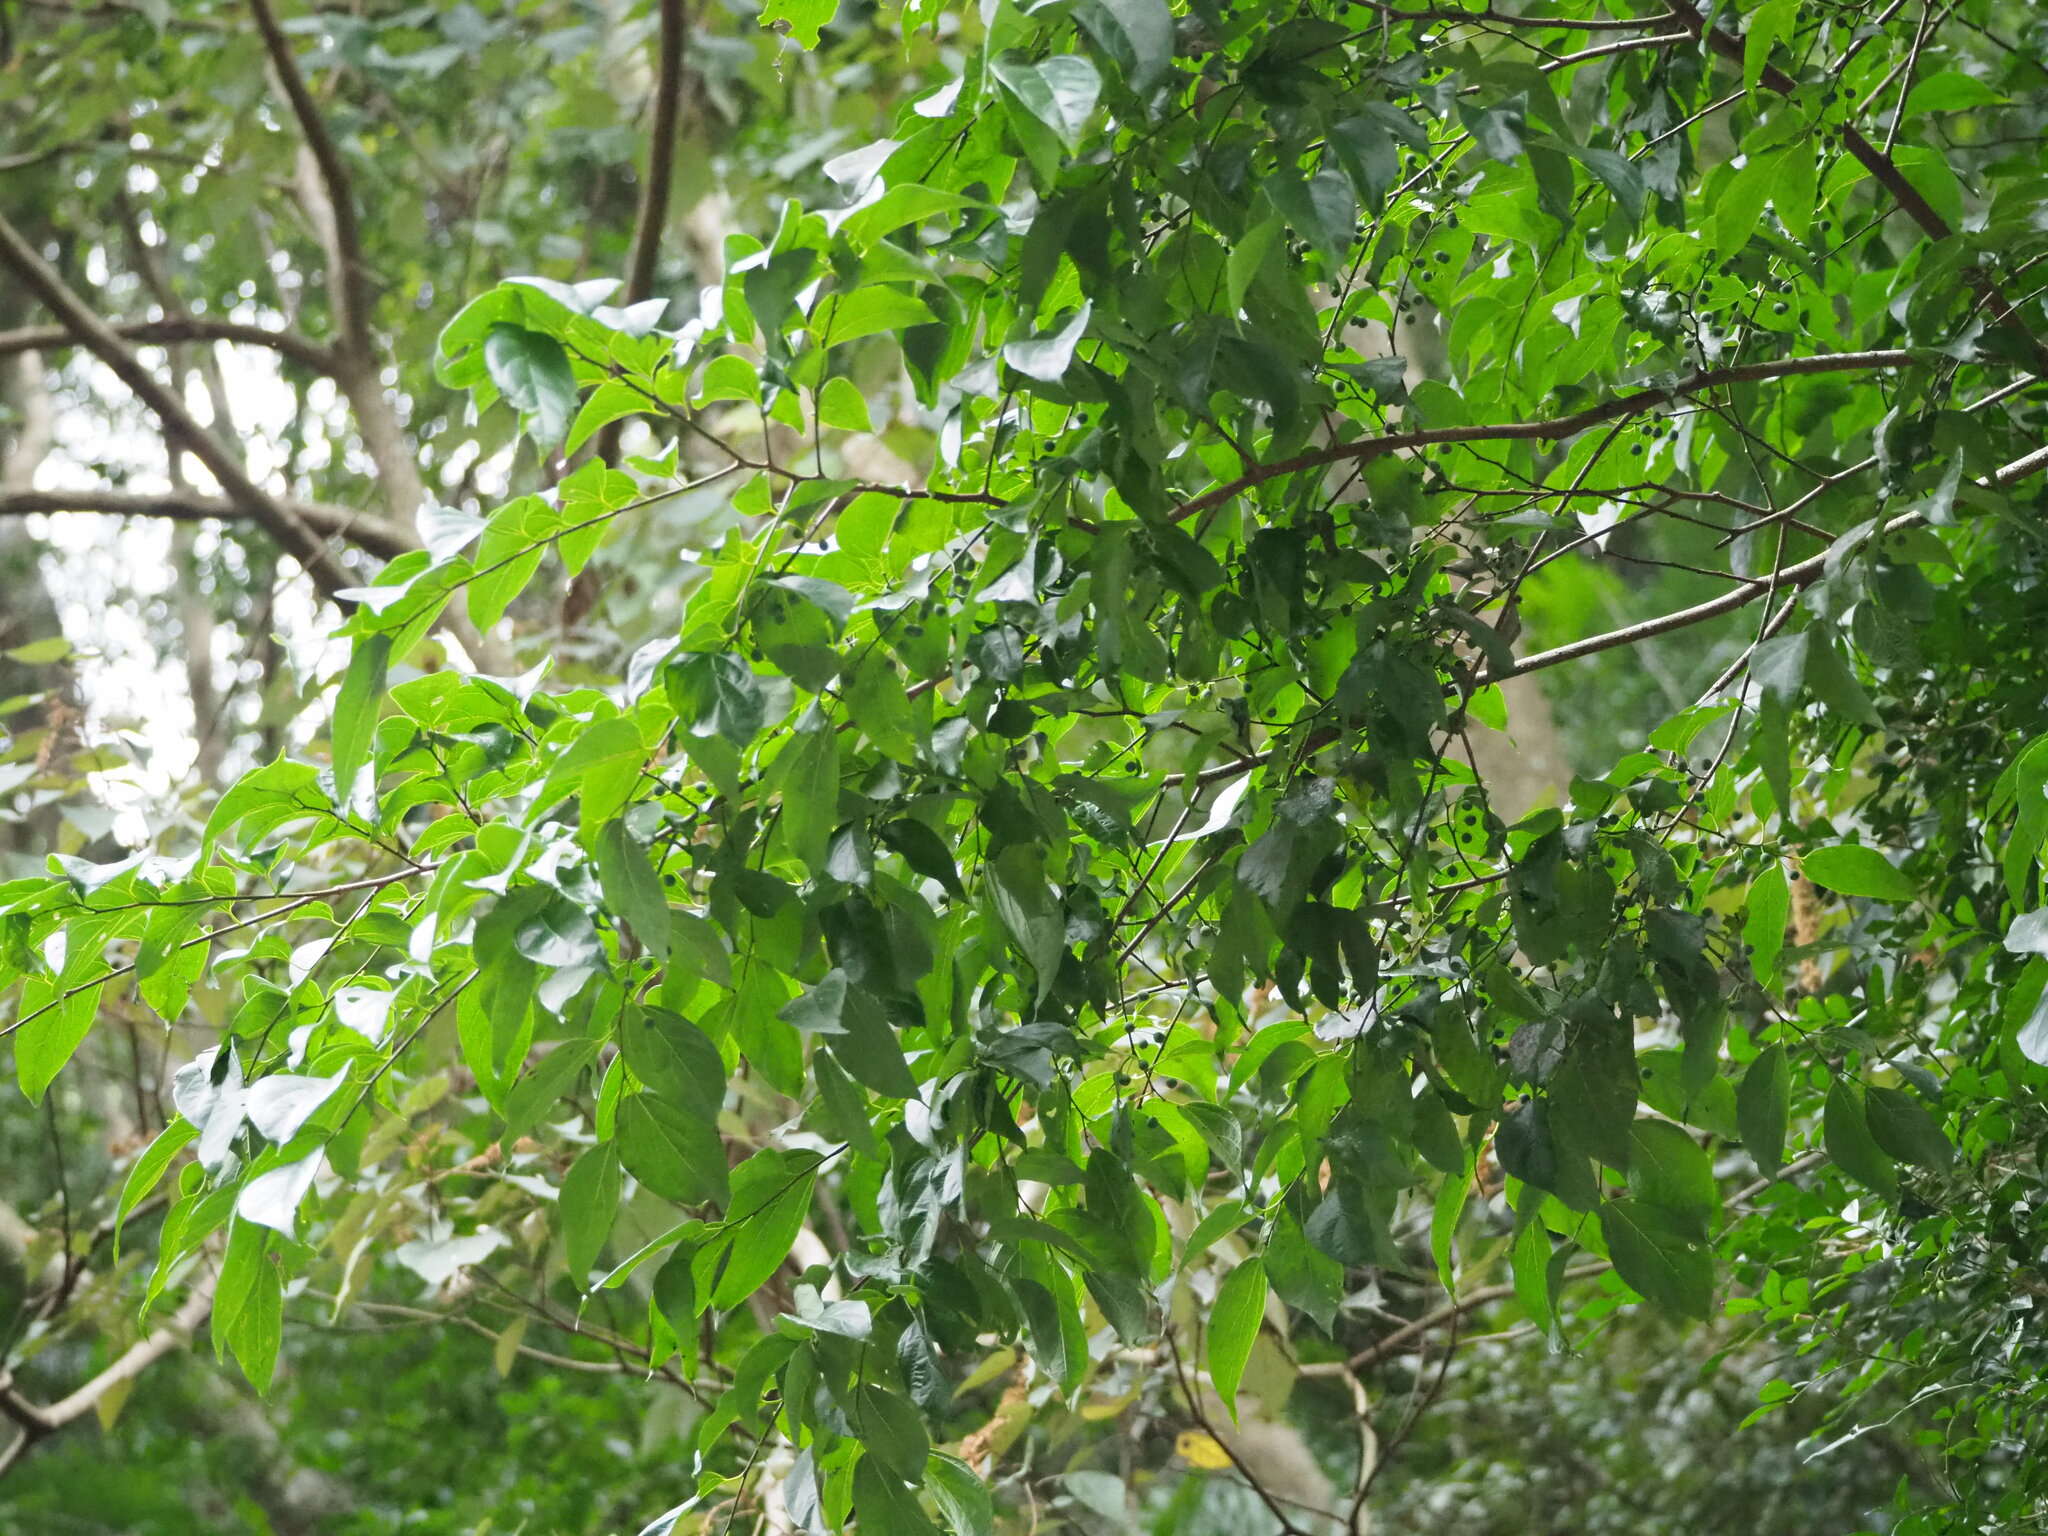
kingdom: Plantae
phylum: Tracheophyta
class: Magnoliopsida
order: Rosales
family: Cannabaceae
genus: Celtis
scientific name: Celtis tetrandra
